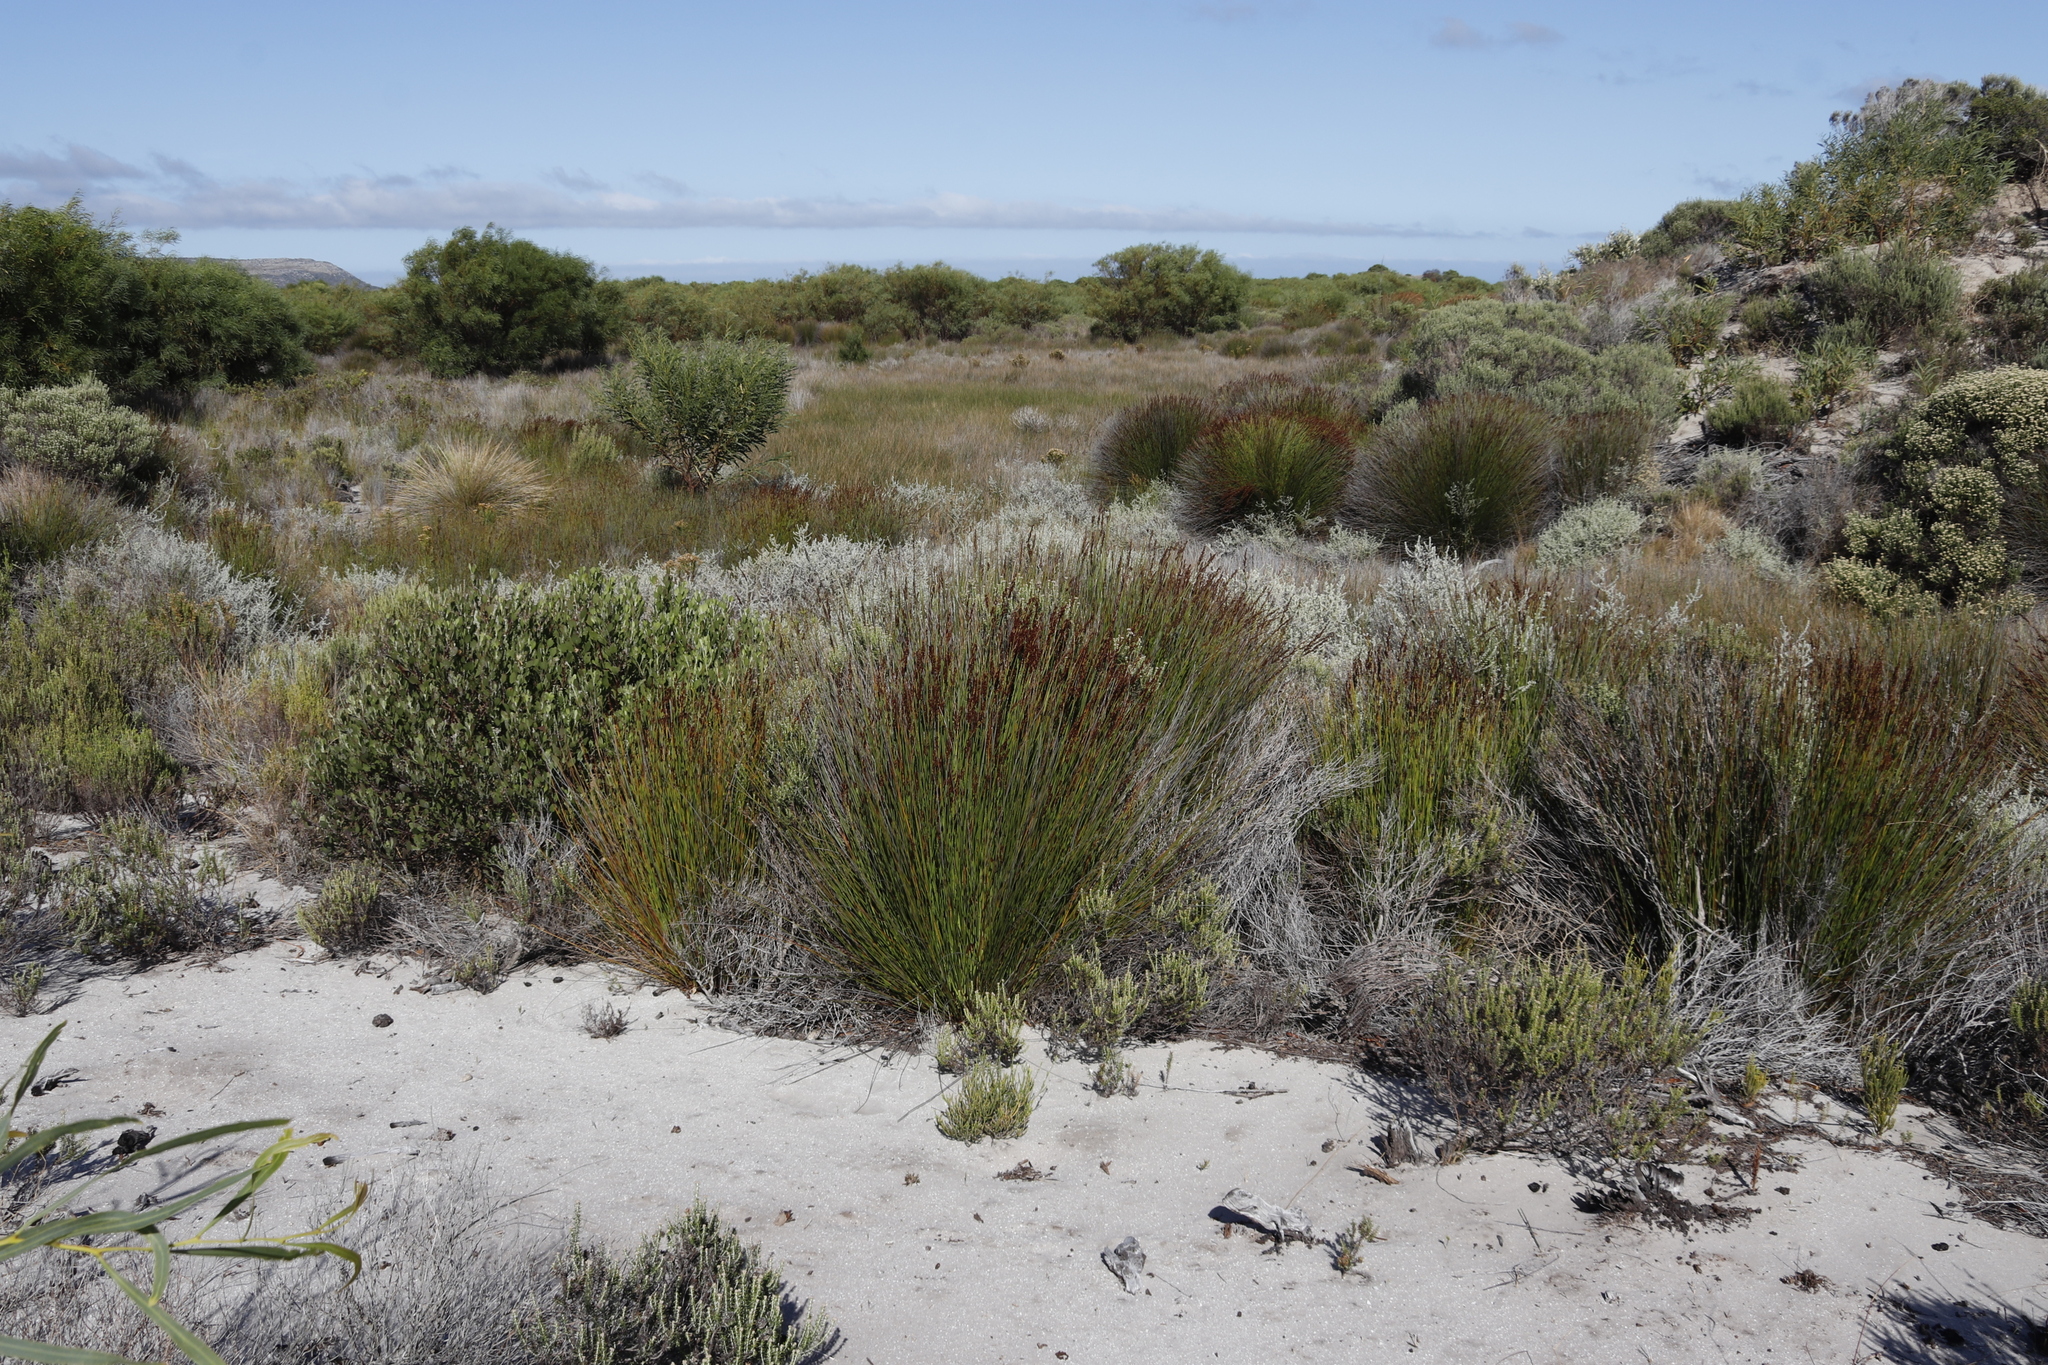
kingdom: Plantae
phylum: Tracheophyta
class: Liliopsida
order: Poales
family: Restionaceae
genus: Elegia
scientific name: Elegia tectorum
